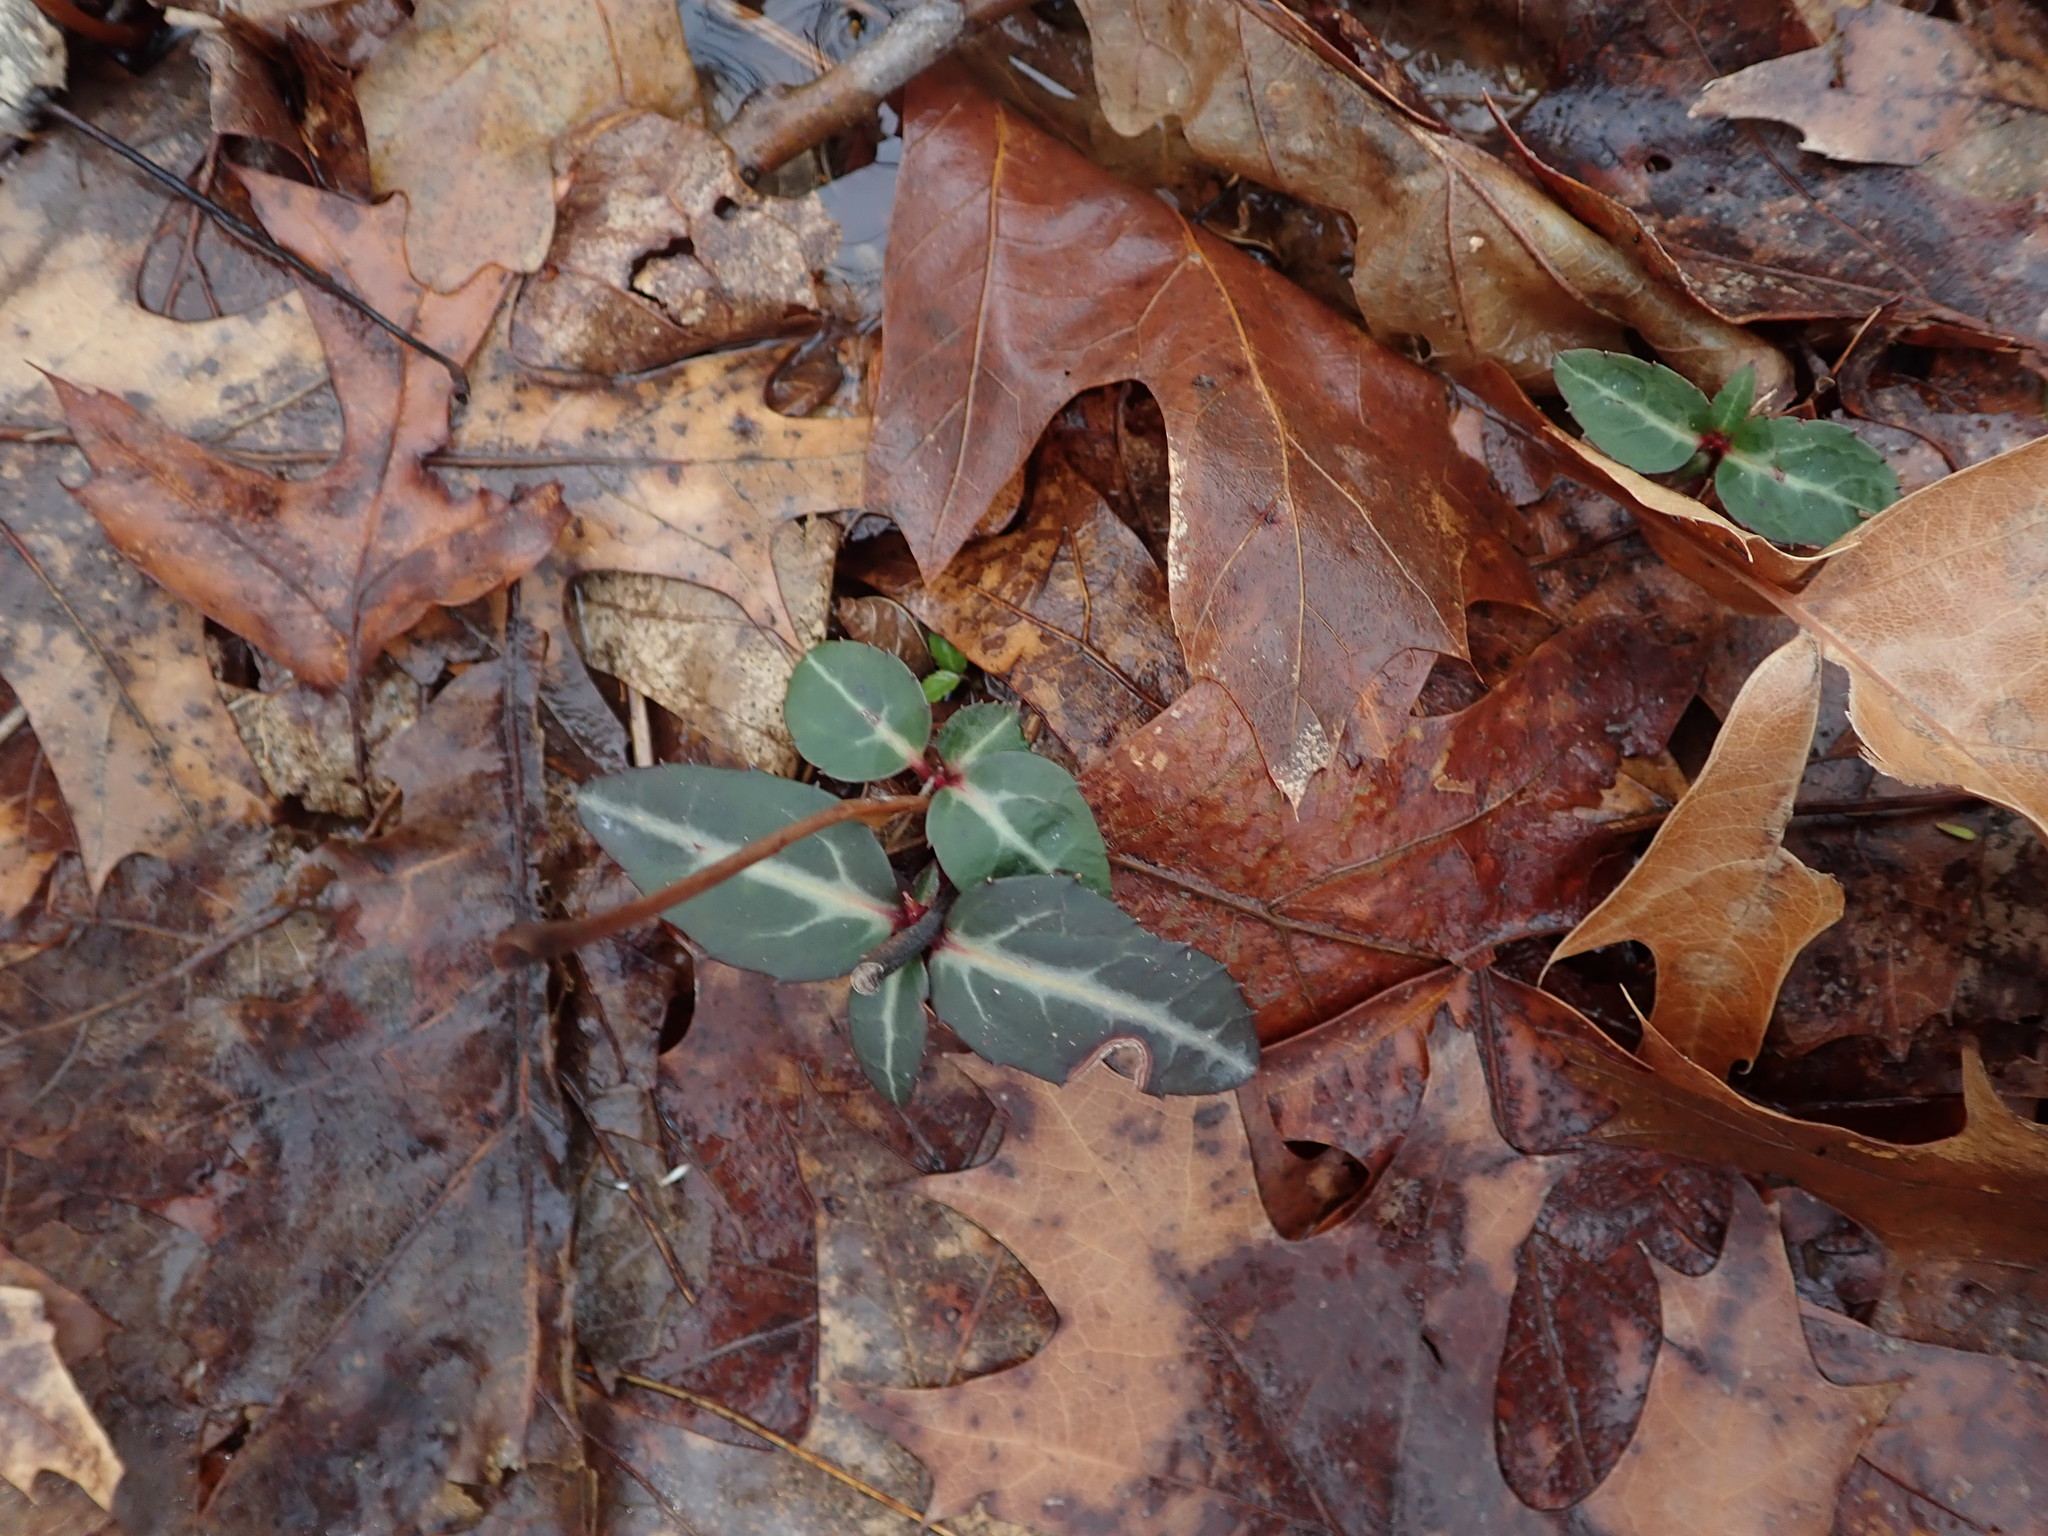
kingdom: Plantae
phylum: Tracheophyta
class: Magnoliopsida
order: Ericales
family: Ericaceae
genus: Chimaphila
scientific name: Chimaphila maculata
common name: Spotted pipsissewa
